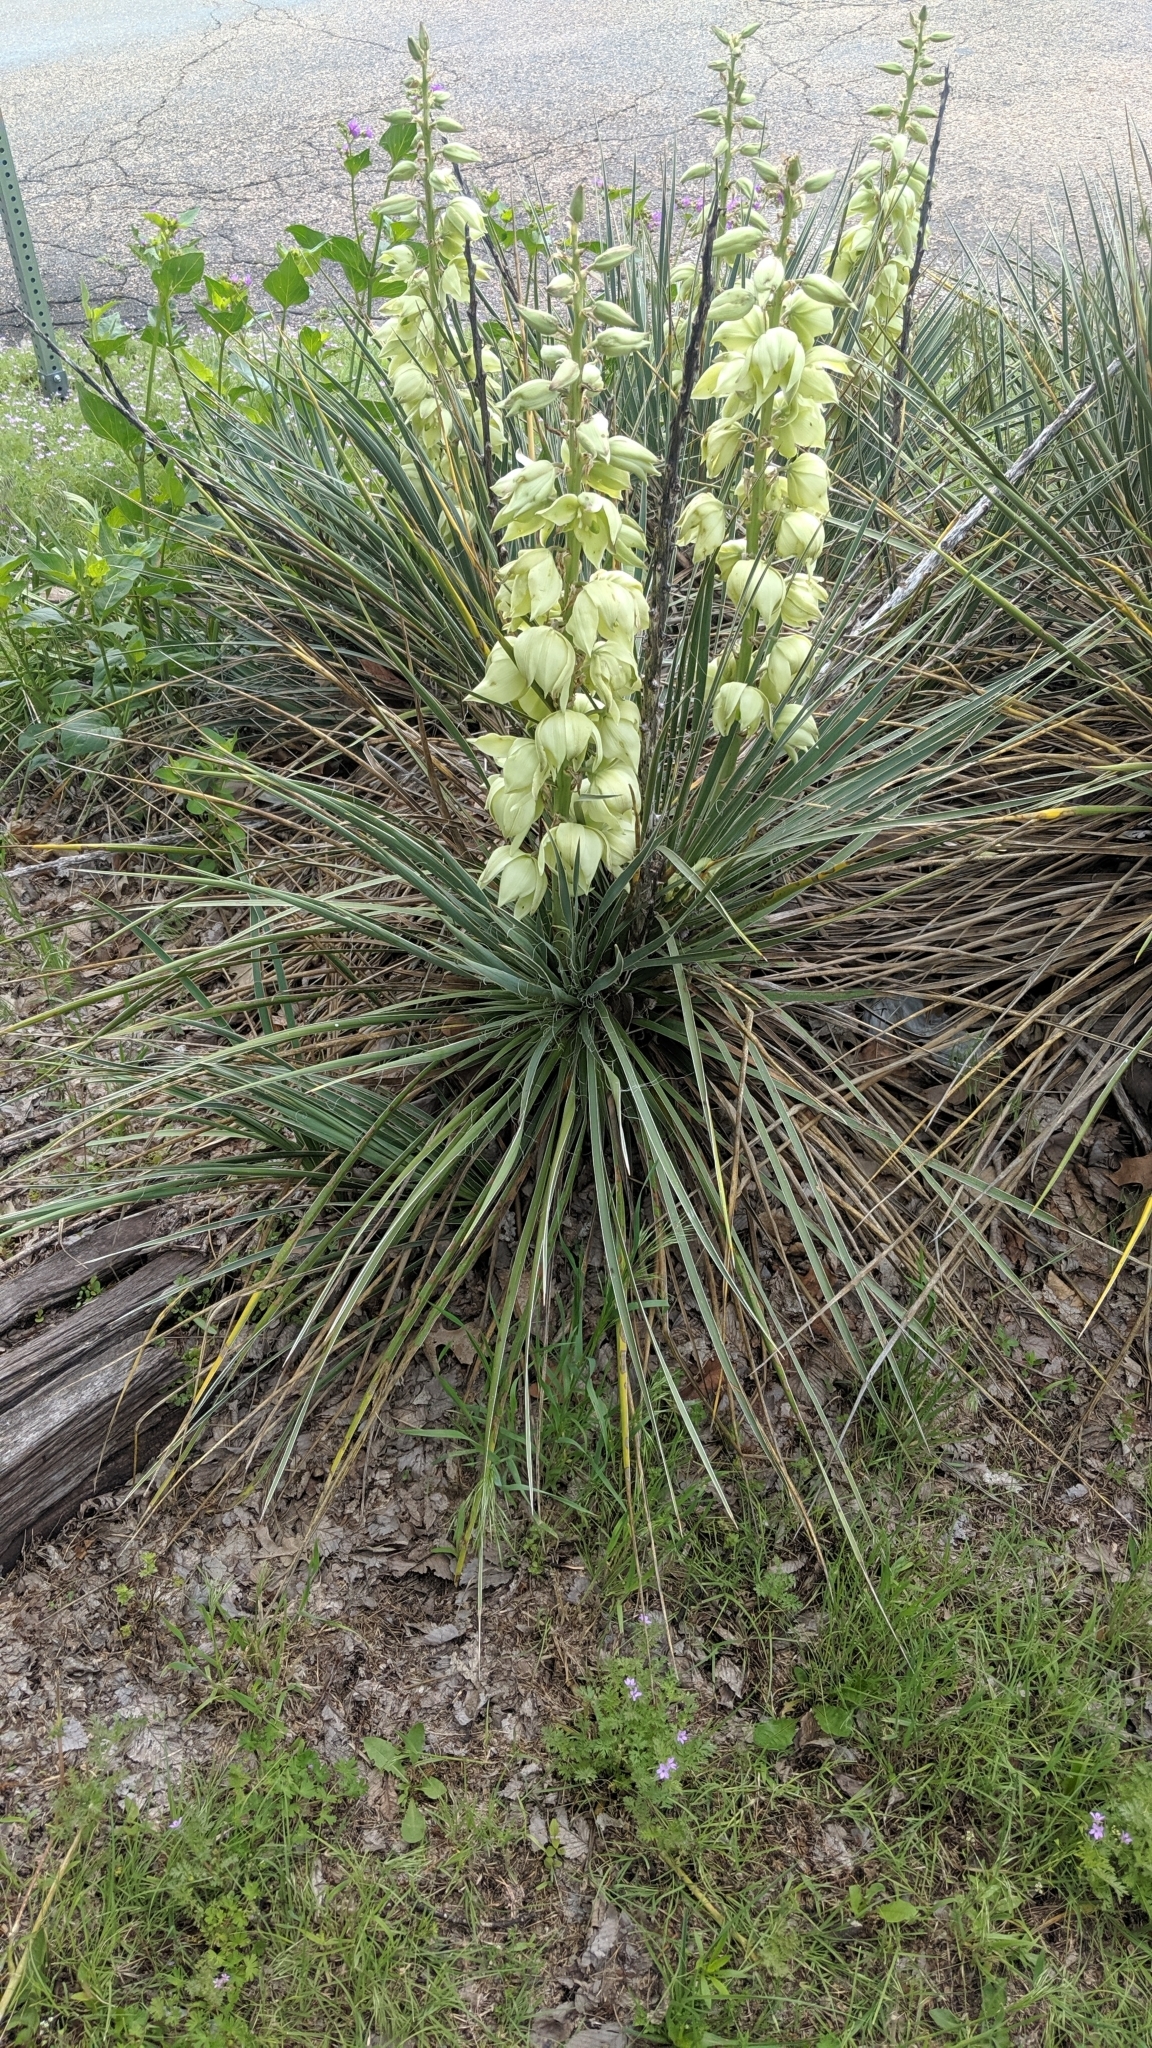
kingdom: Plantae
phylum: Tracheophyta
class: Liliopsida
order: Asparagales
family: Asparagaceae
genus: Yucca
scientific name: Yucca glauca
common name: Great plains yucca
